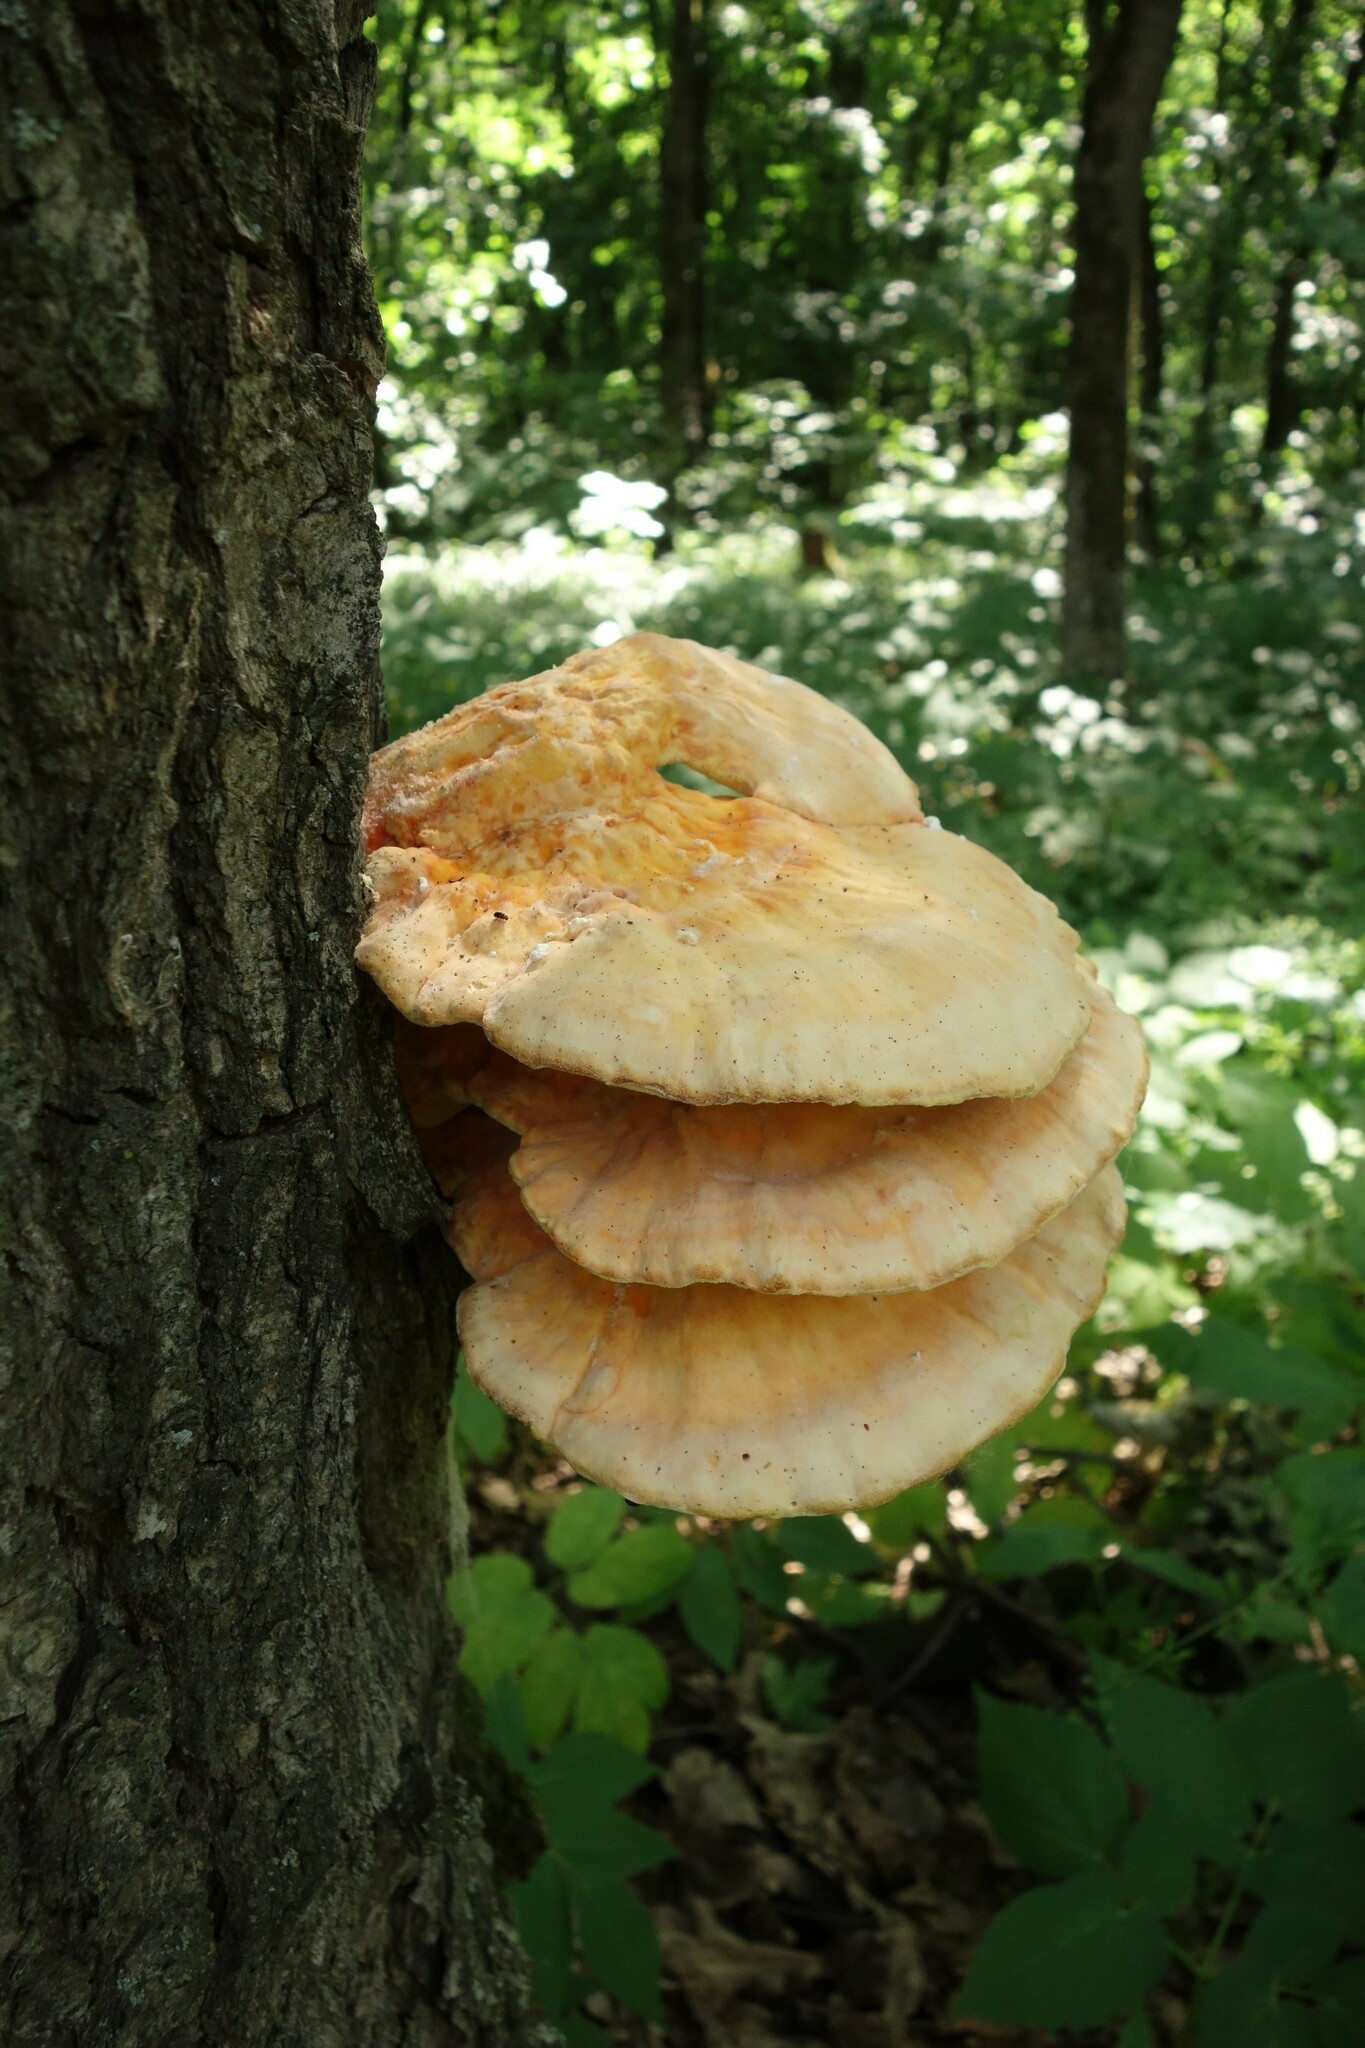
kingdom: Fungi
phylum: Basidiomycota
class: Agaricomycetes
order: Polyporales
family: Laetiporaceae
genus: Laetiporus
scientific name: Laetiporus sulphureus
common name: Chicken of the woods
